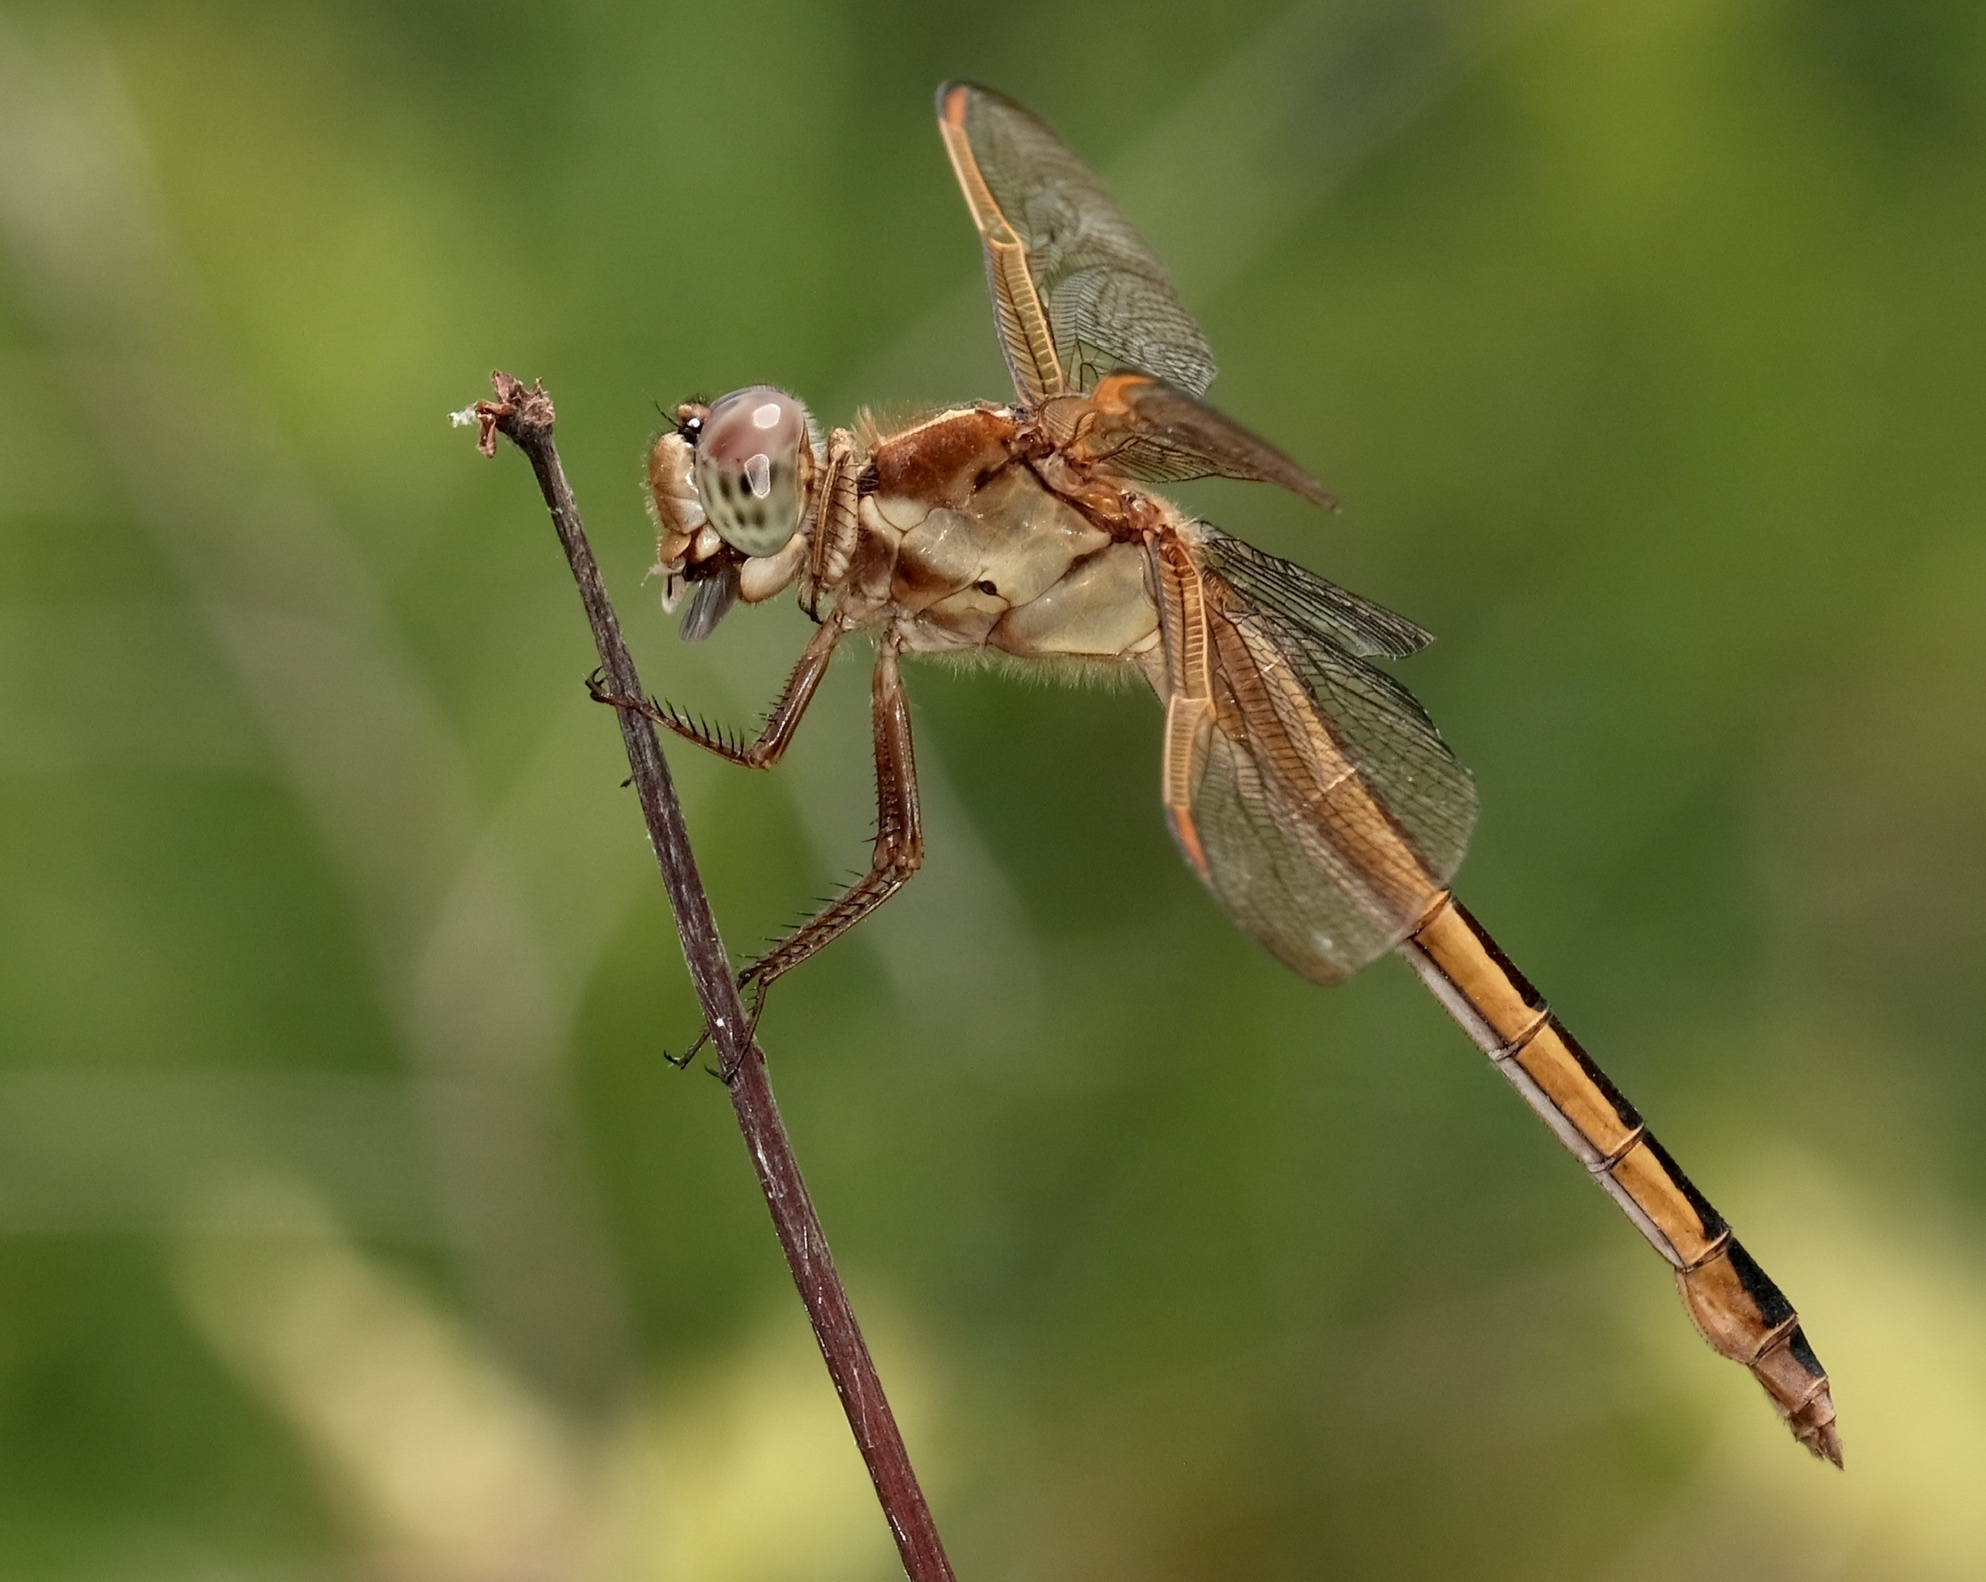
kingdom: Animalia
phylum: Arthropoda
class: Insecta
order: Odonata
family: Libellulidae
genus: Libellula
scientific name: Libellula needhami
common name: Needham's skimmer
